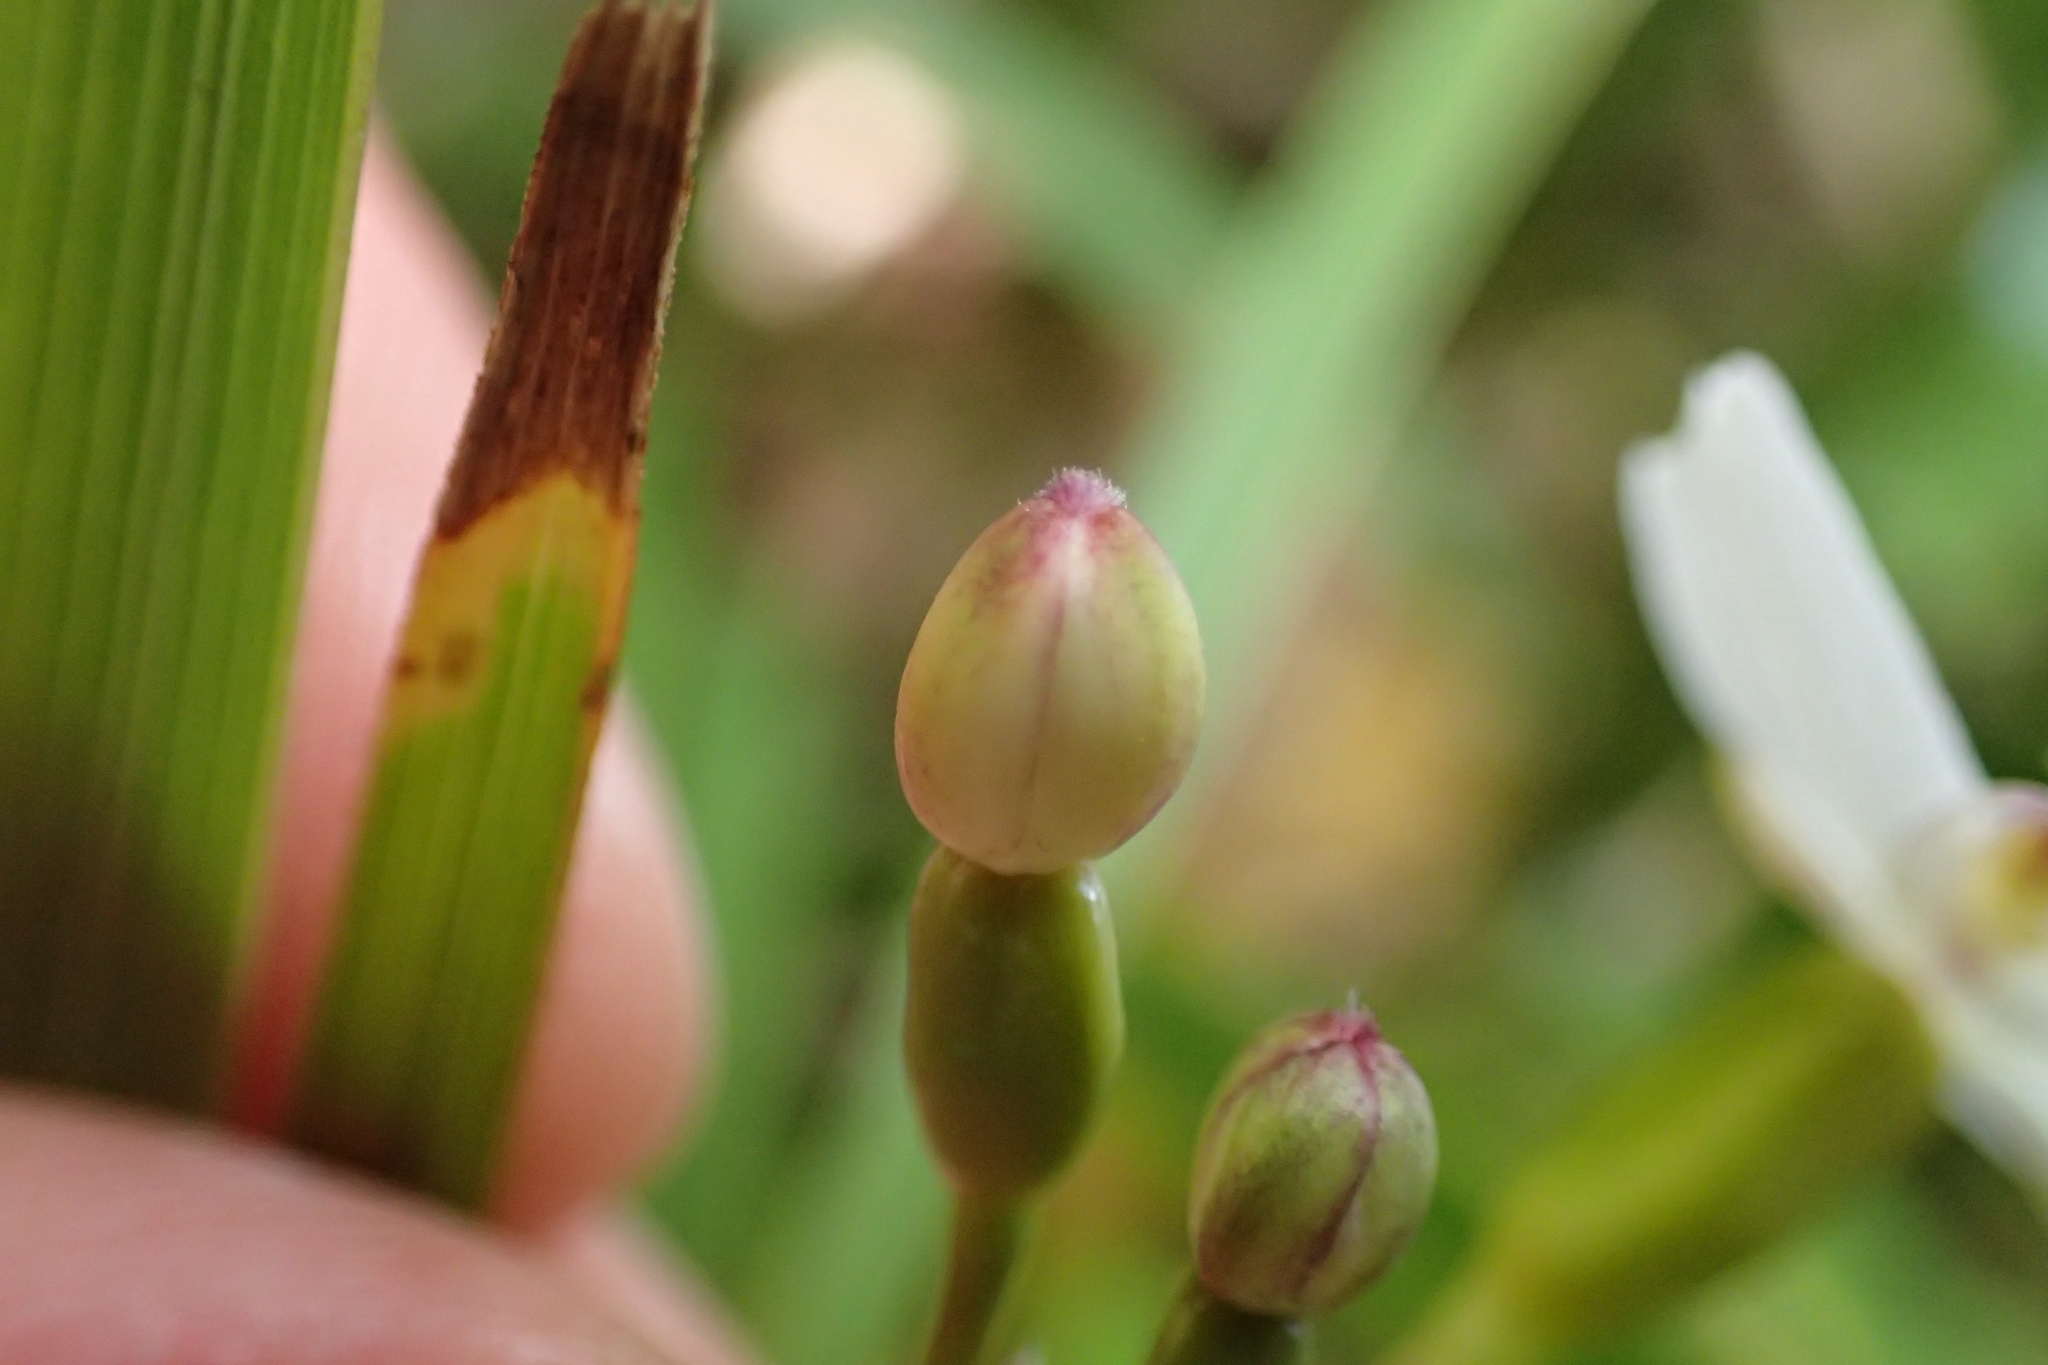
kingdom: Plantae
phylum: Tracheophyta
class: Liliopsida
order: Asparagales
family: Iridaceae
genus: Libertia
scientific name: Libertia ixioides
